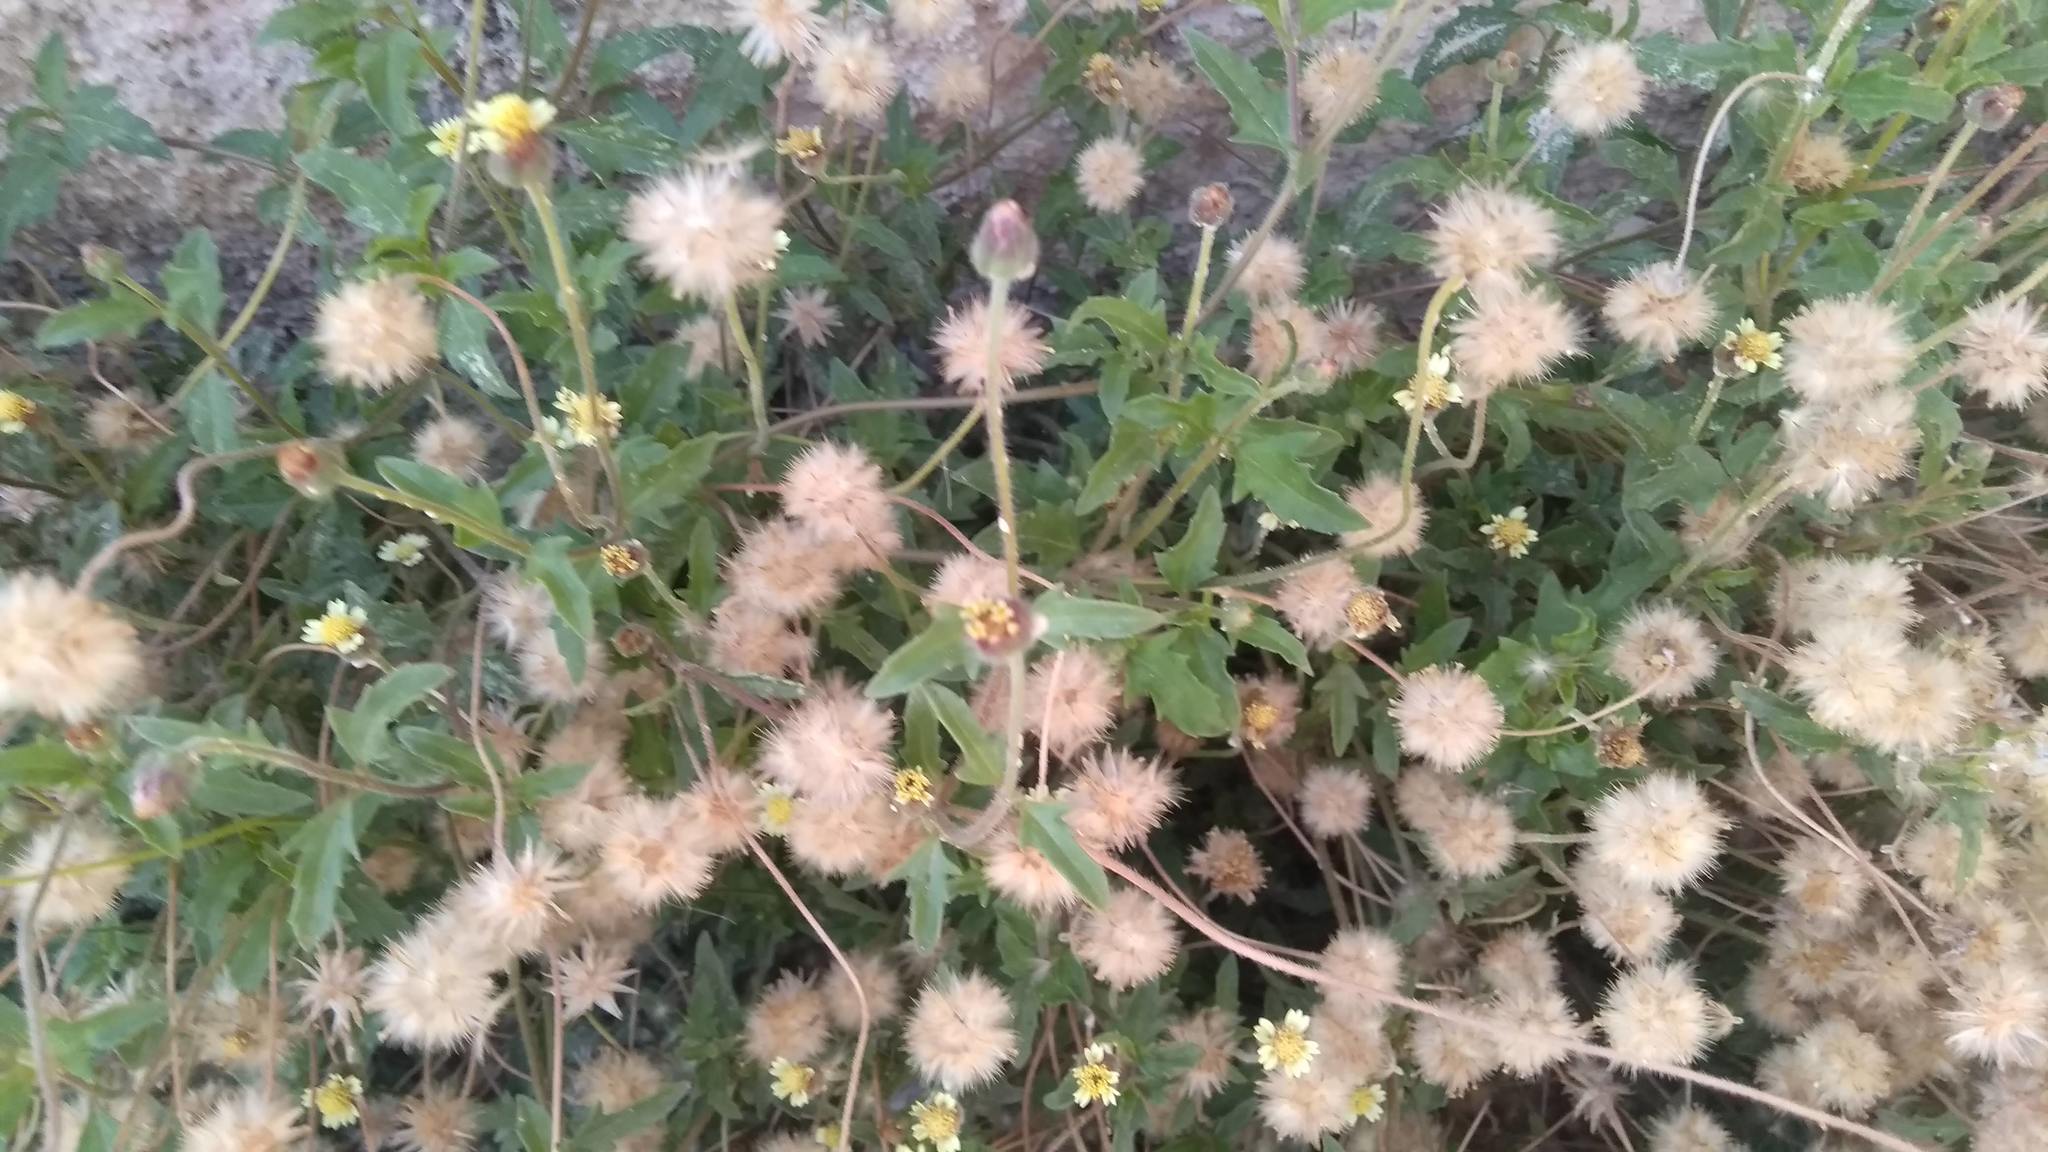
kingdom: Plantae
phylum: Tracheophyta
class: Magnoliopsida
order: Asterales
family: Asteraceae
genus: Tridax
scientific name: Tridax procumbens
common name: Coatbuttons
